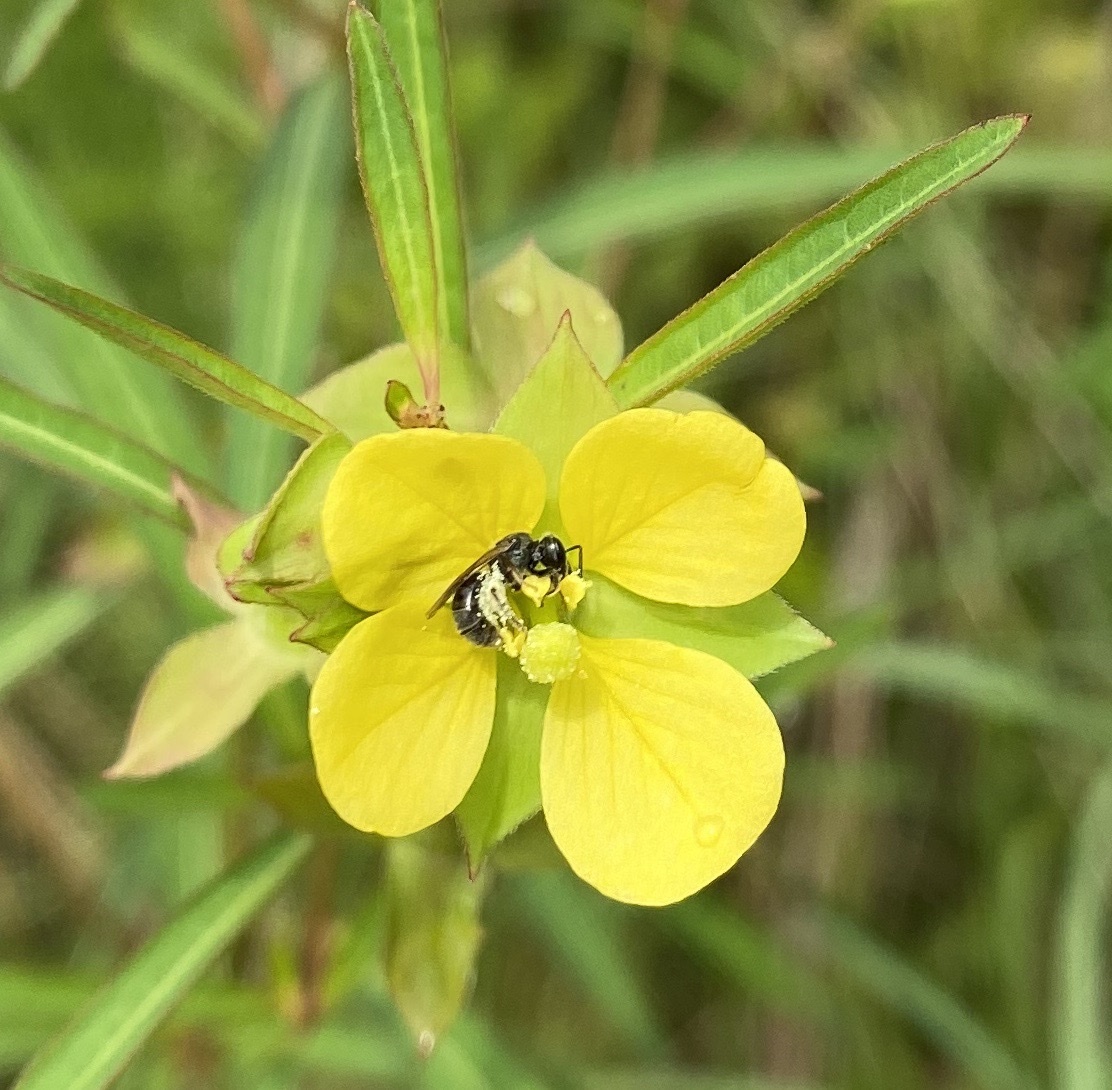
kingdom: Animalia
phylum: Arthropoda
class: Insecta
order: Hymenoptera
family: Halictidae
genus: Dialictus
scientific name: Dialictus
